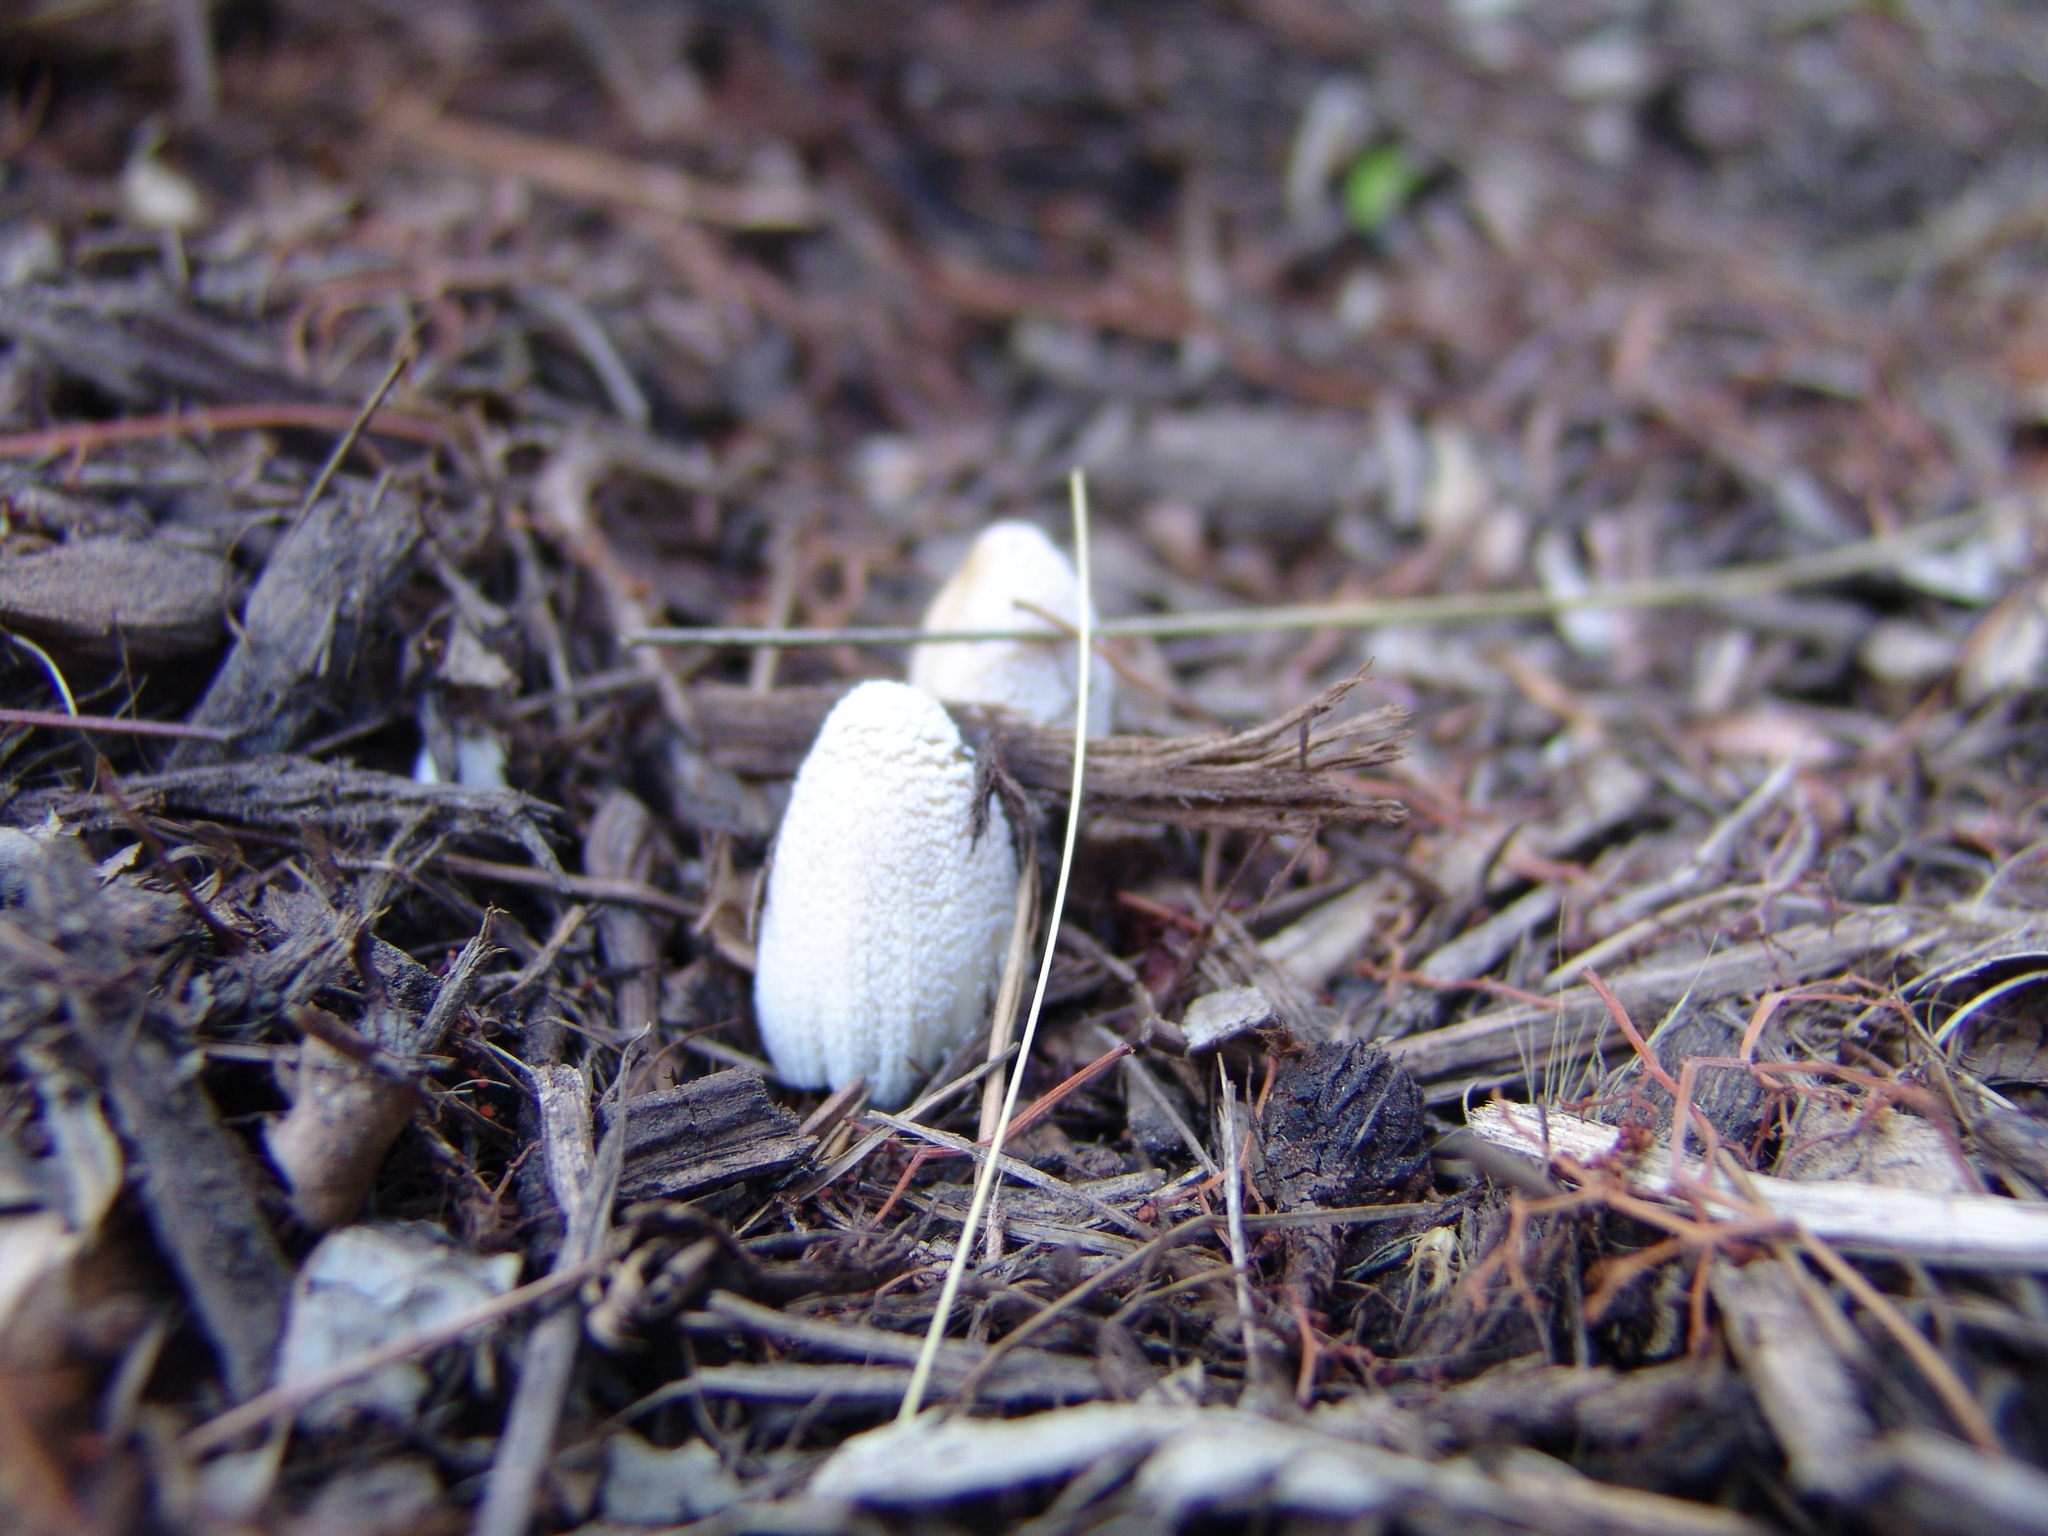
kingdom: Fungi
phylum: Basidiomycota
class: Agaricomycetes
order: Agaricales
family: Psathyrellaceae
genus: Coprinellus
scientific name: Coprinellus flocculosus
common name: Flocculose inkcap
